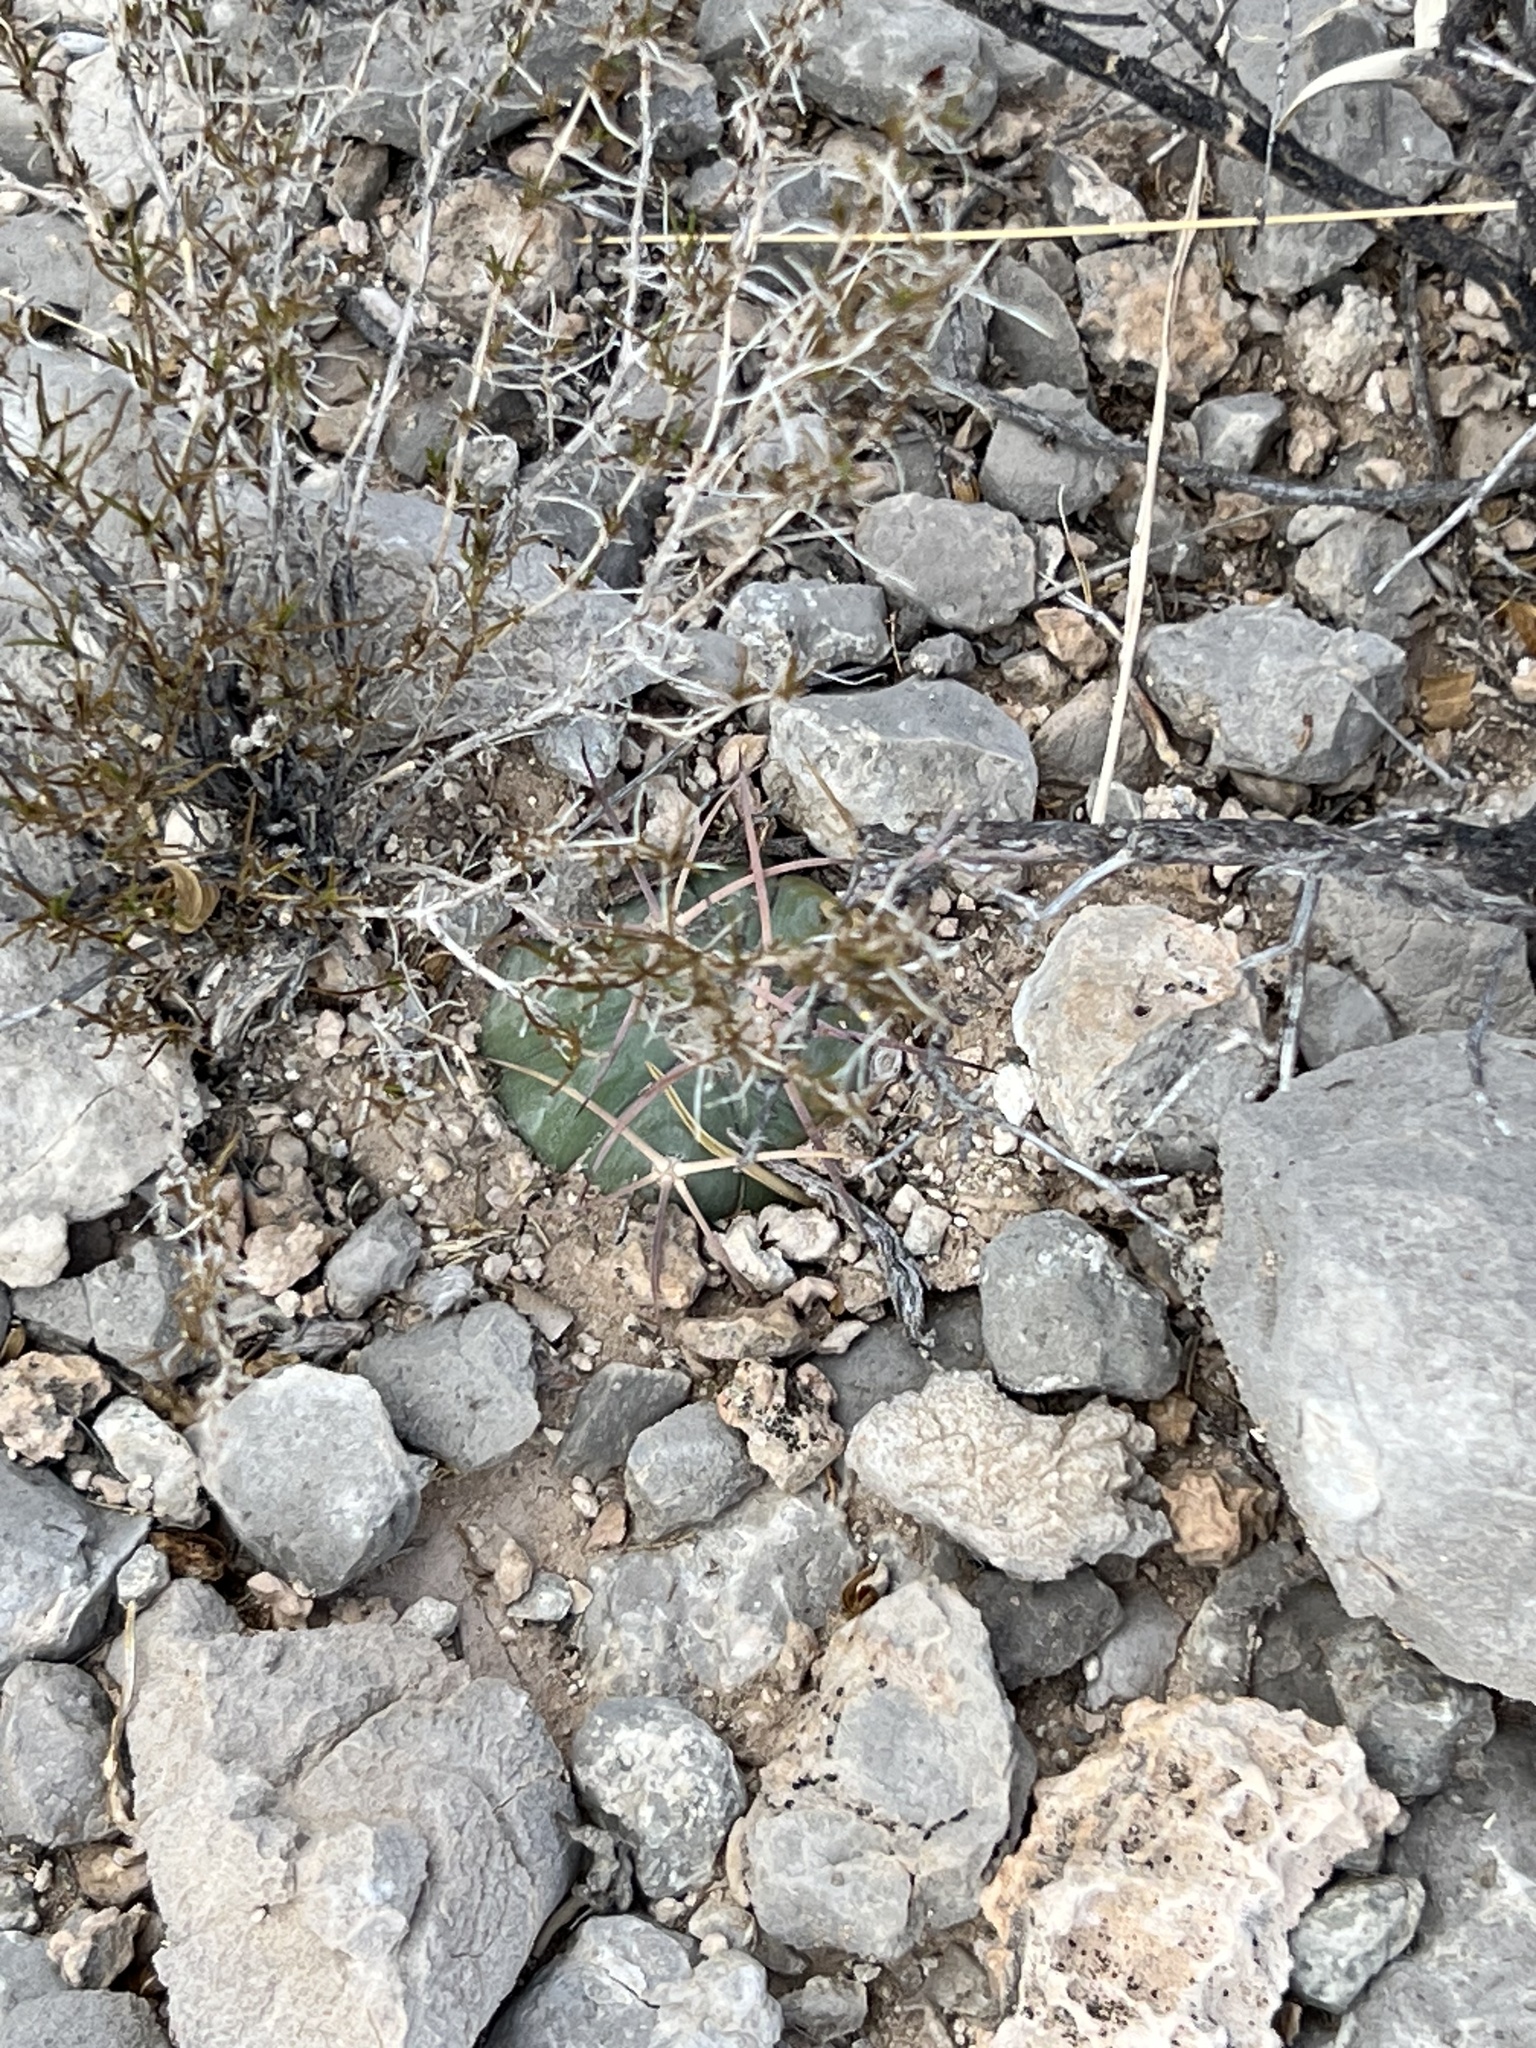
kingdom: Plantae
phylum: Tracheophyta
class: Magnoliopsida
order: Caryophyllales
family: Cactaceae
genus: Echinocactus
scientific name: Echinocactus horizonthalonius
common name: Devilshead
